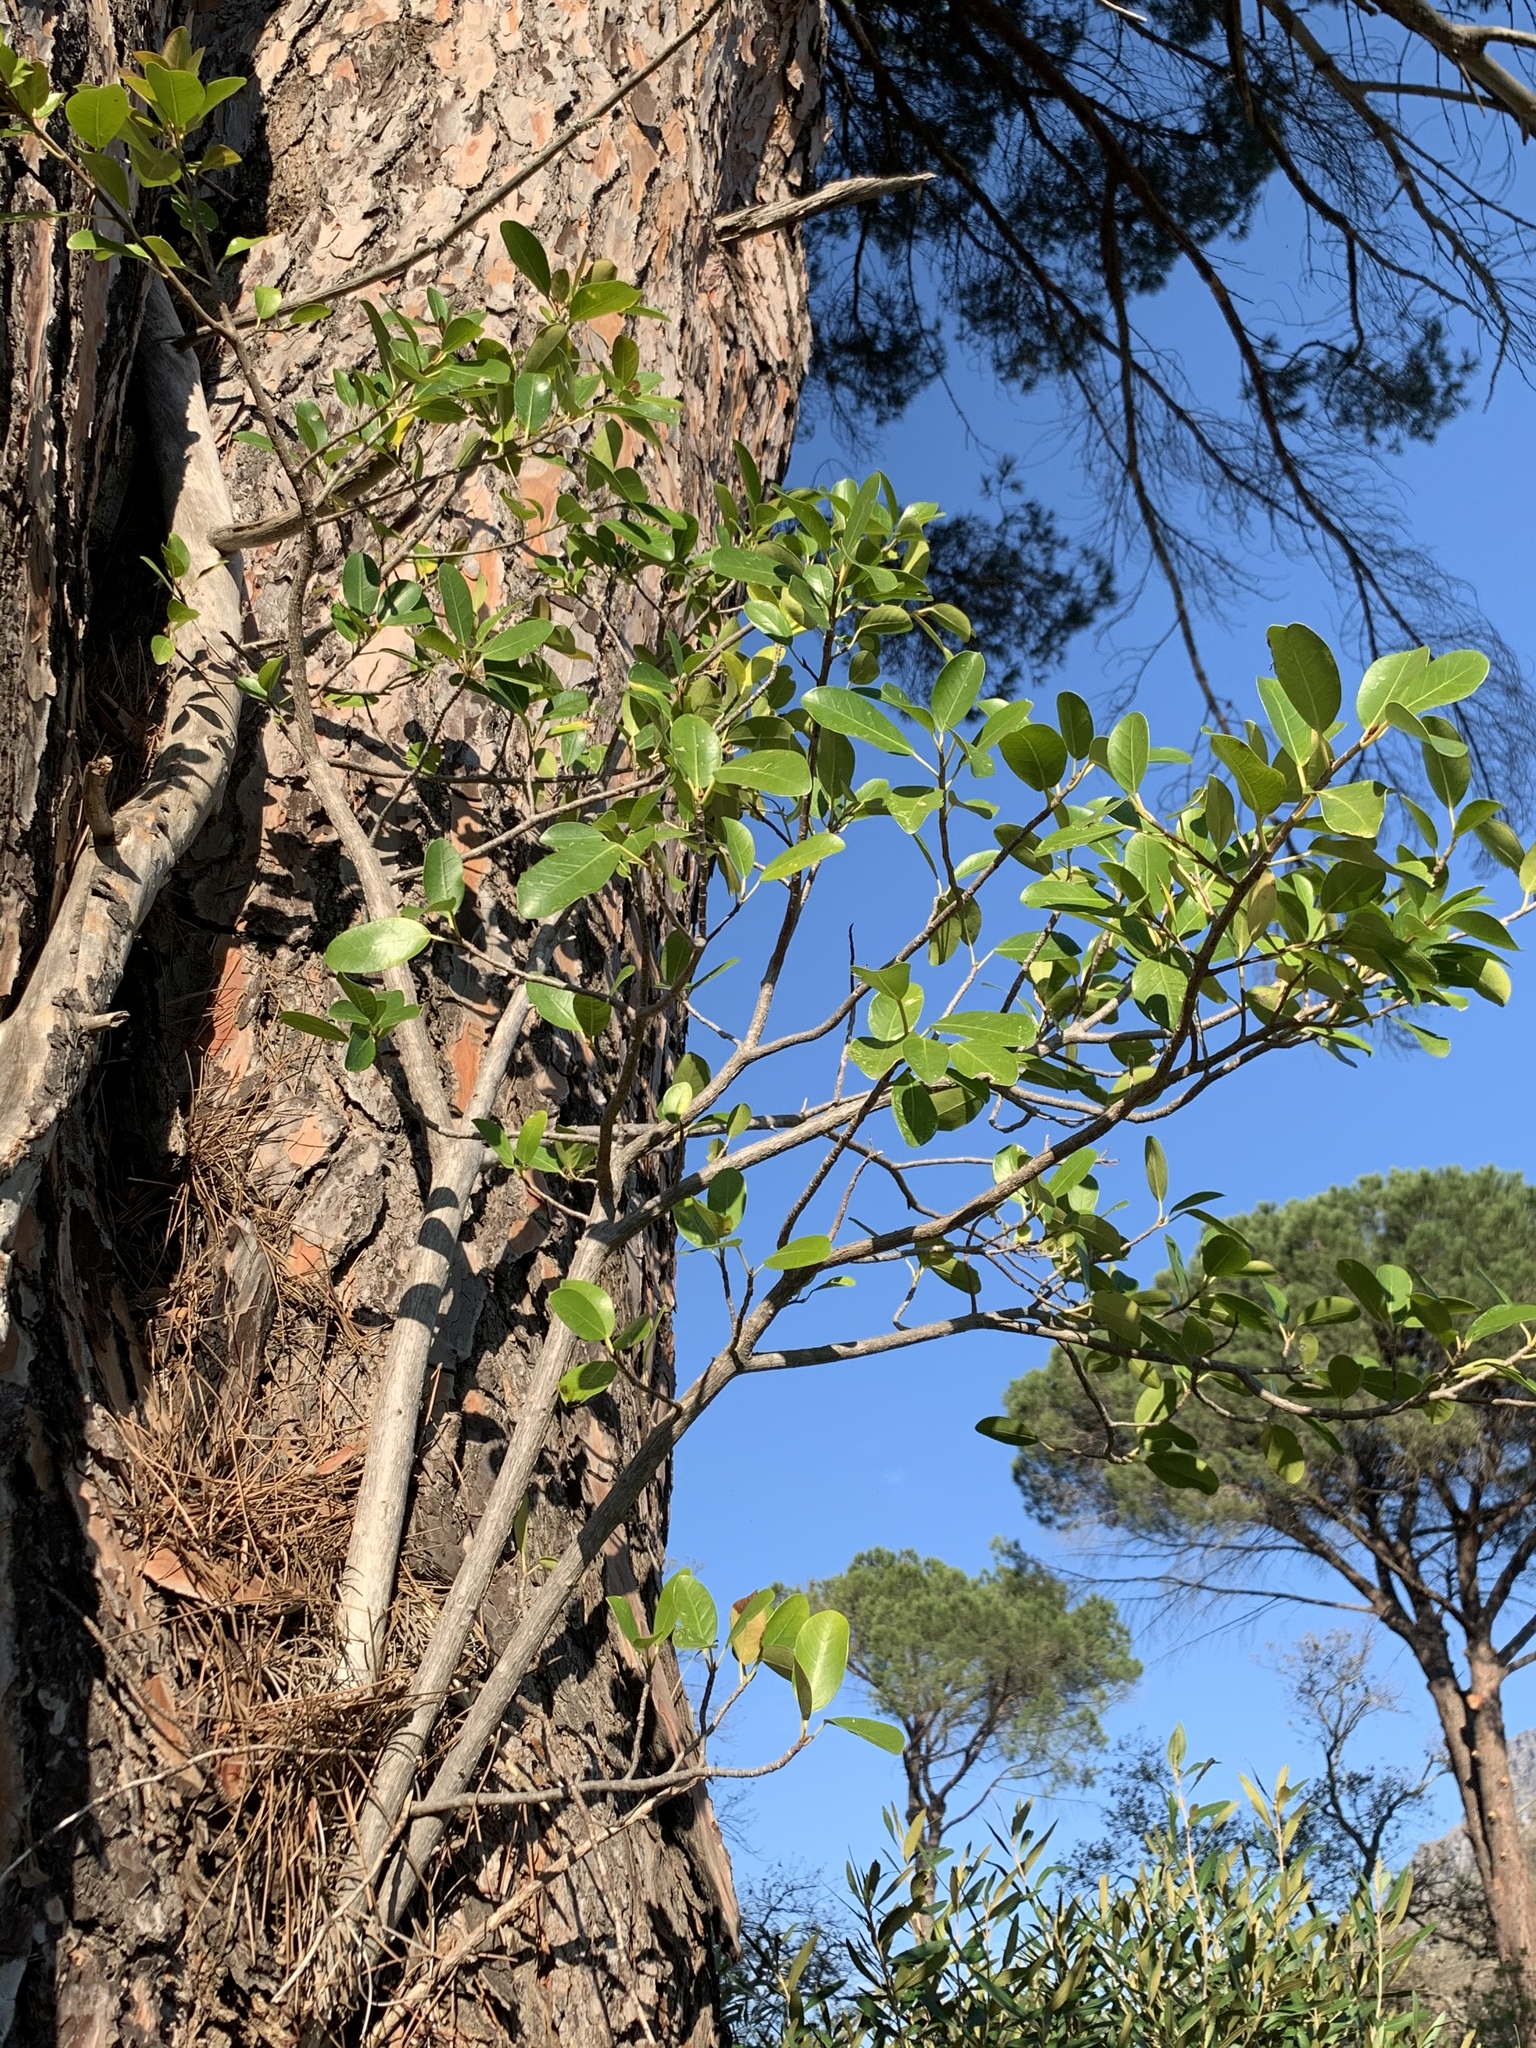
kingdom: Plantae
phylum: Tracheophyta
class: Magnoliopsida
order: Rosales
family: Moraceae
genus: Ficus
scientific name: Ficus thonningii
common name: Fig
